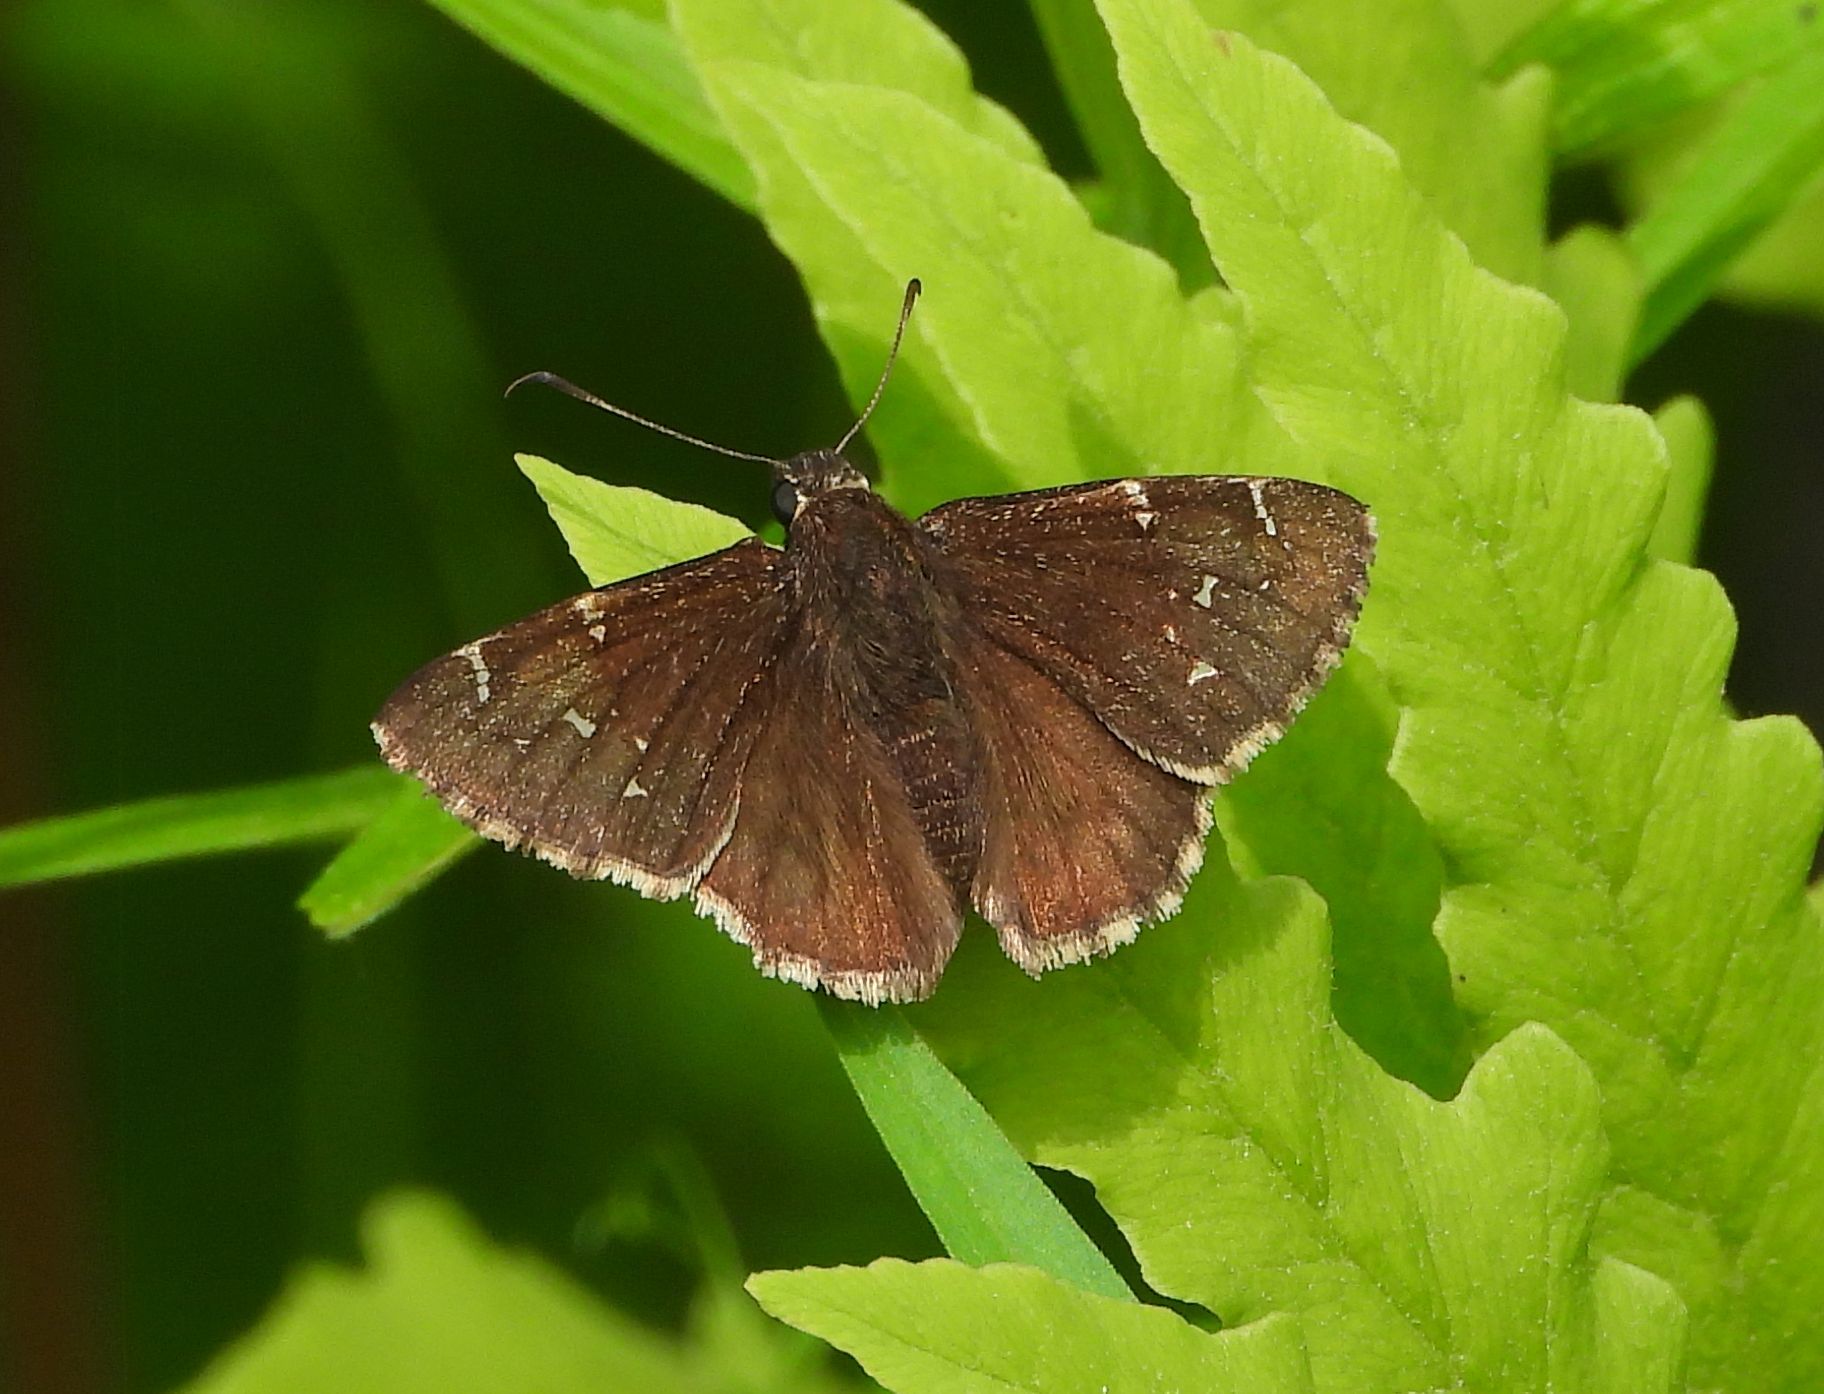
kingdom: Animalia
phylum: Arthropoda
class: Insecta
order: Lepidoptera
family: Hesperiidae
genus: Thorybes
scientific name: Thorybes pylades
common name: Northern cloudywing
